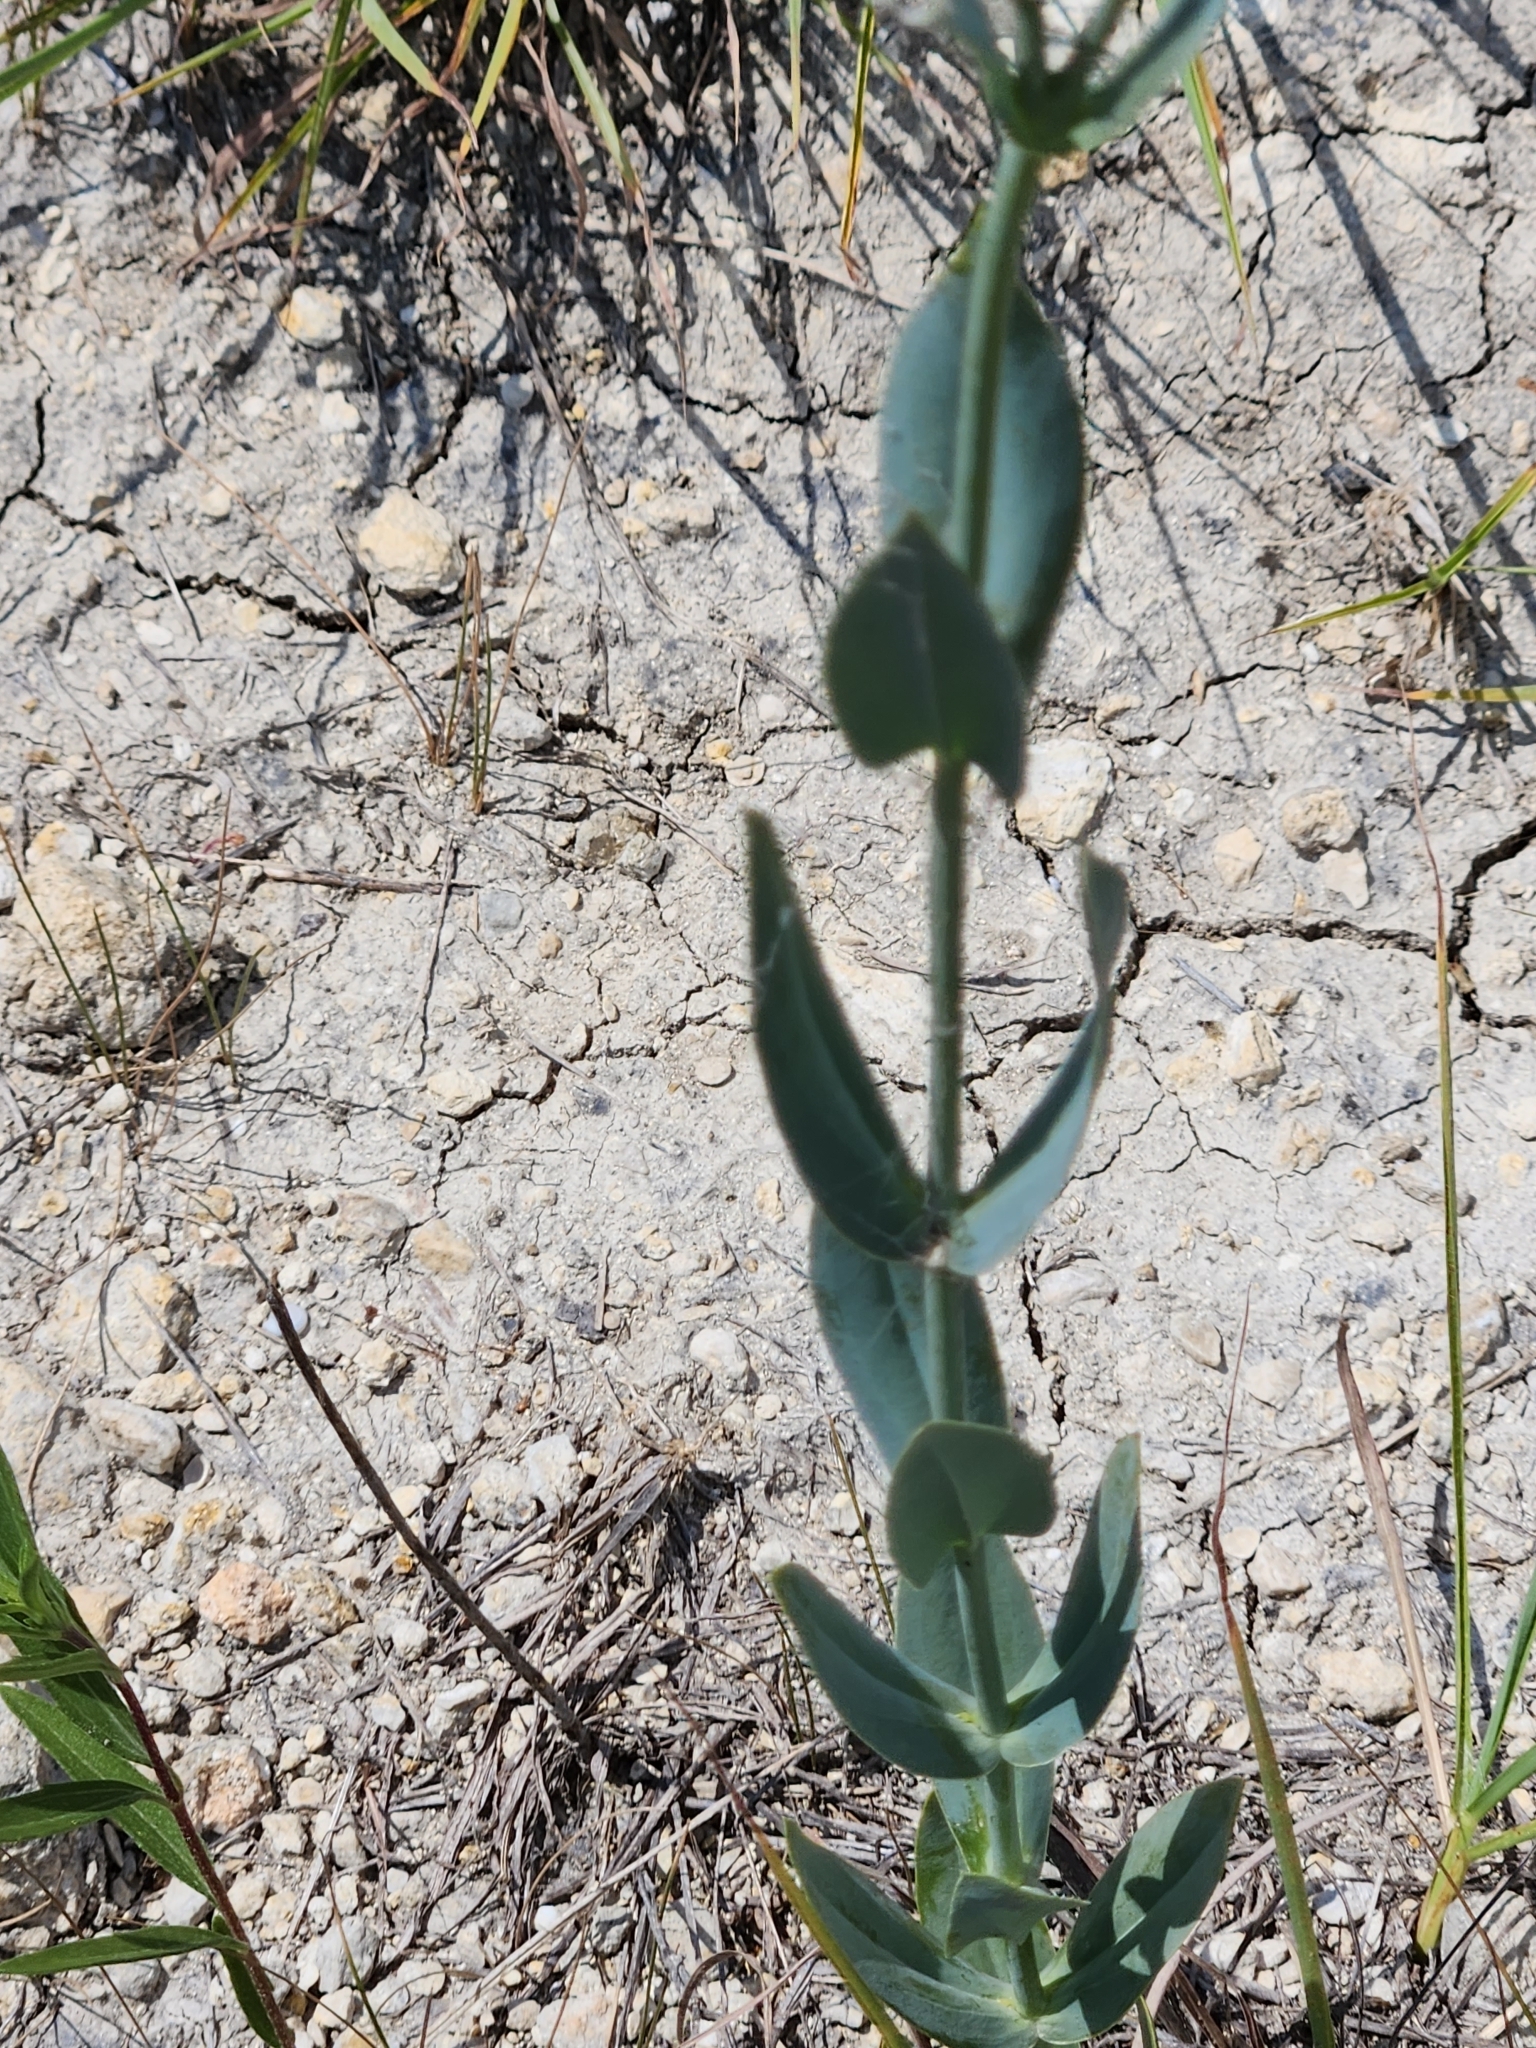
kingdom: Plantae
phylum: Tracheophyta
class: Magnoliopsida
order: Gentianales
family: Gentianaceae
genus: Eustoma
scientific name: Eustoma russellianum
